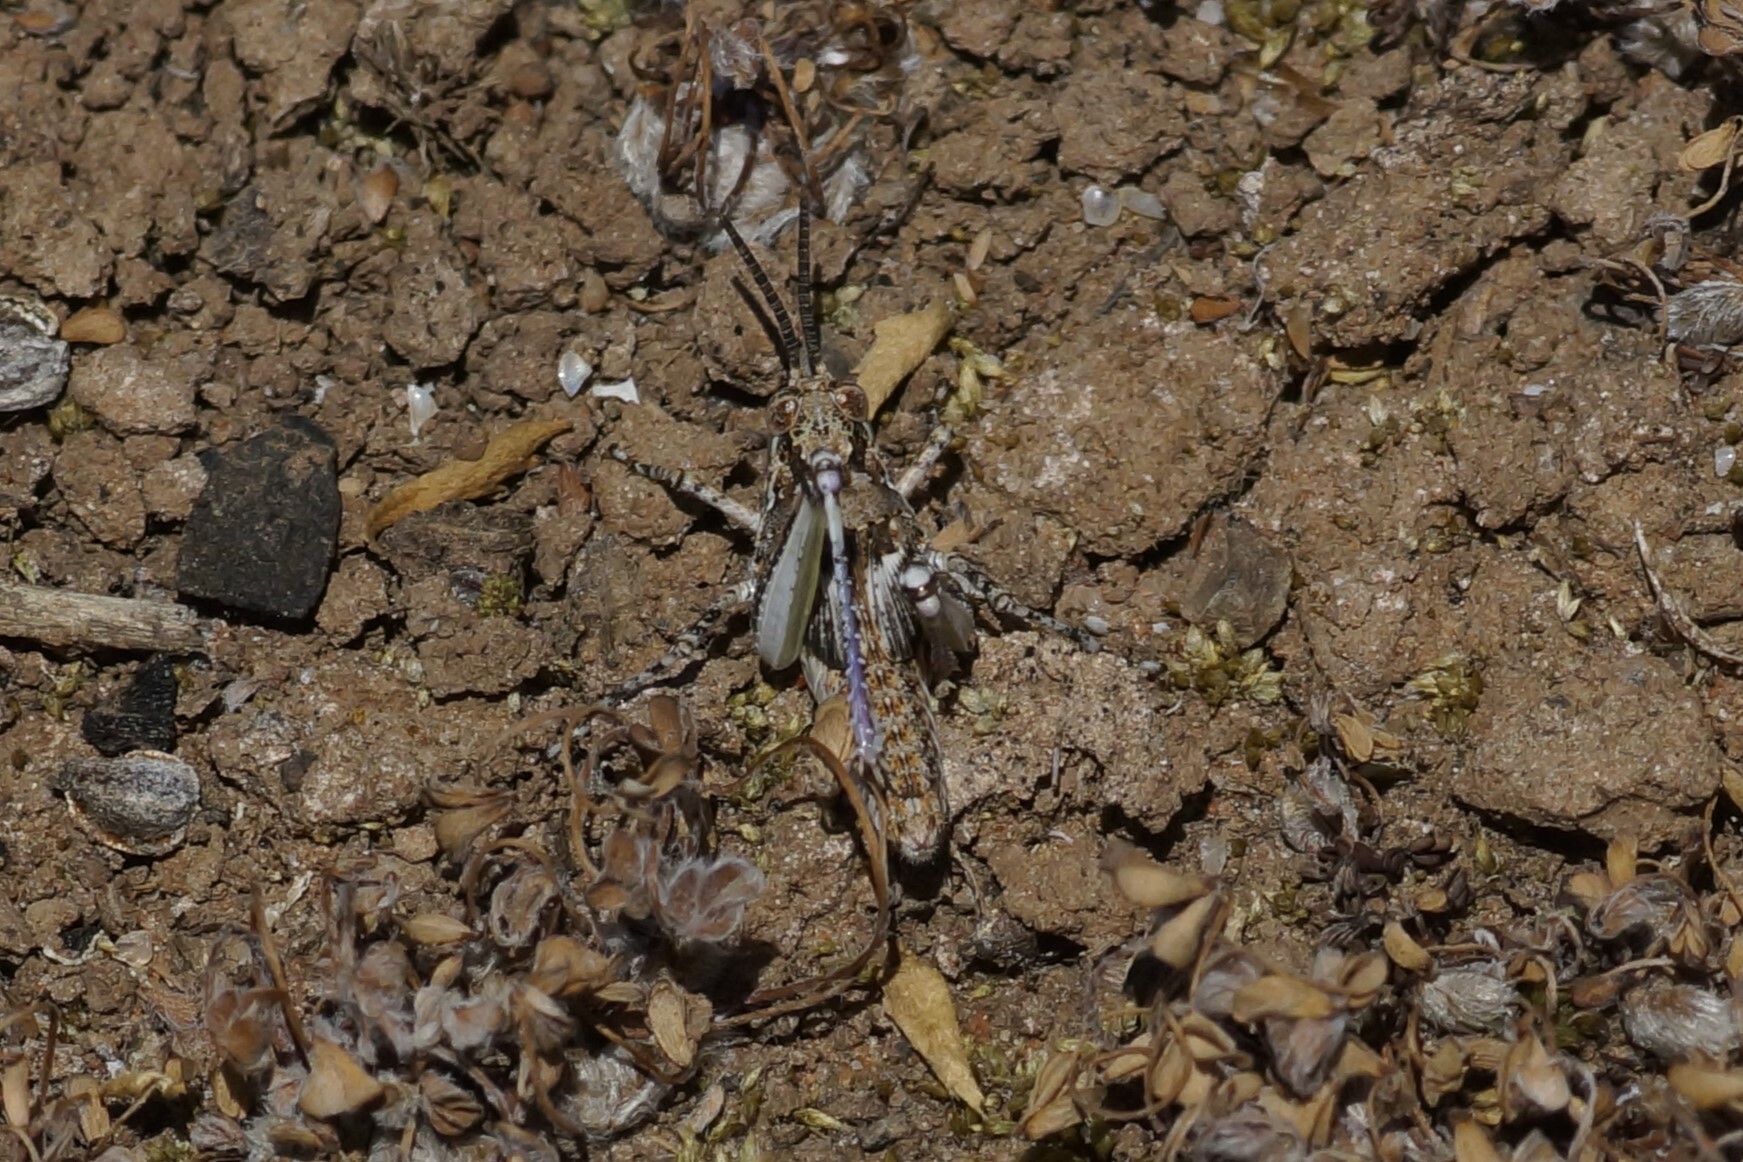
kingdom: Animalia
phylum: Arthropoda
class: Insecta
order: Orthoptera
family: Acrididae
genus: Urnisa
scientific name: Urnisa guttulosa
